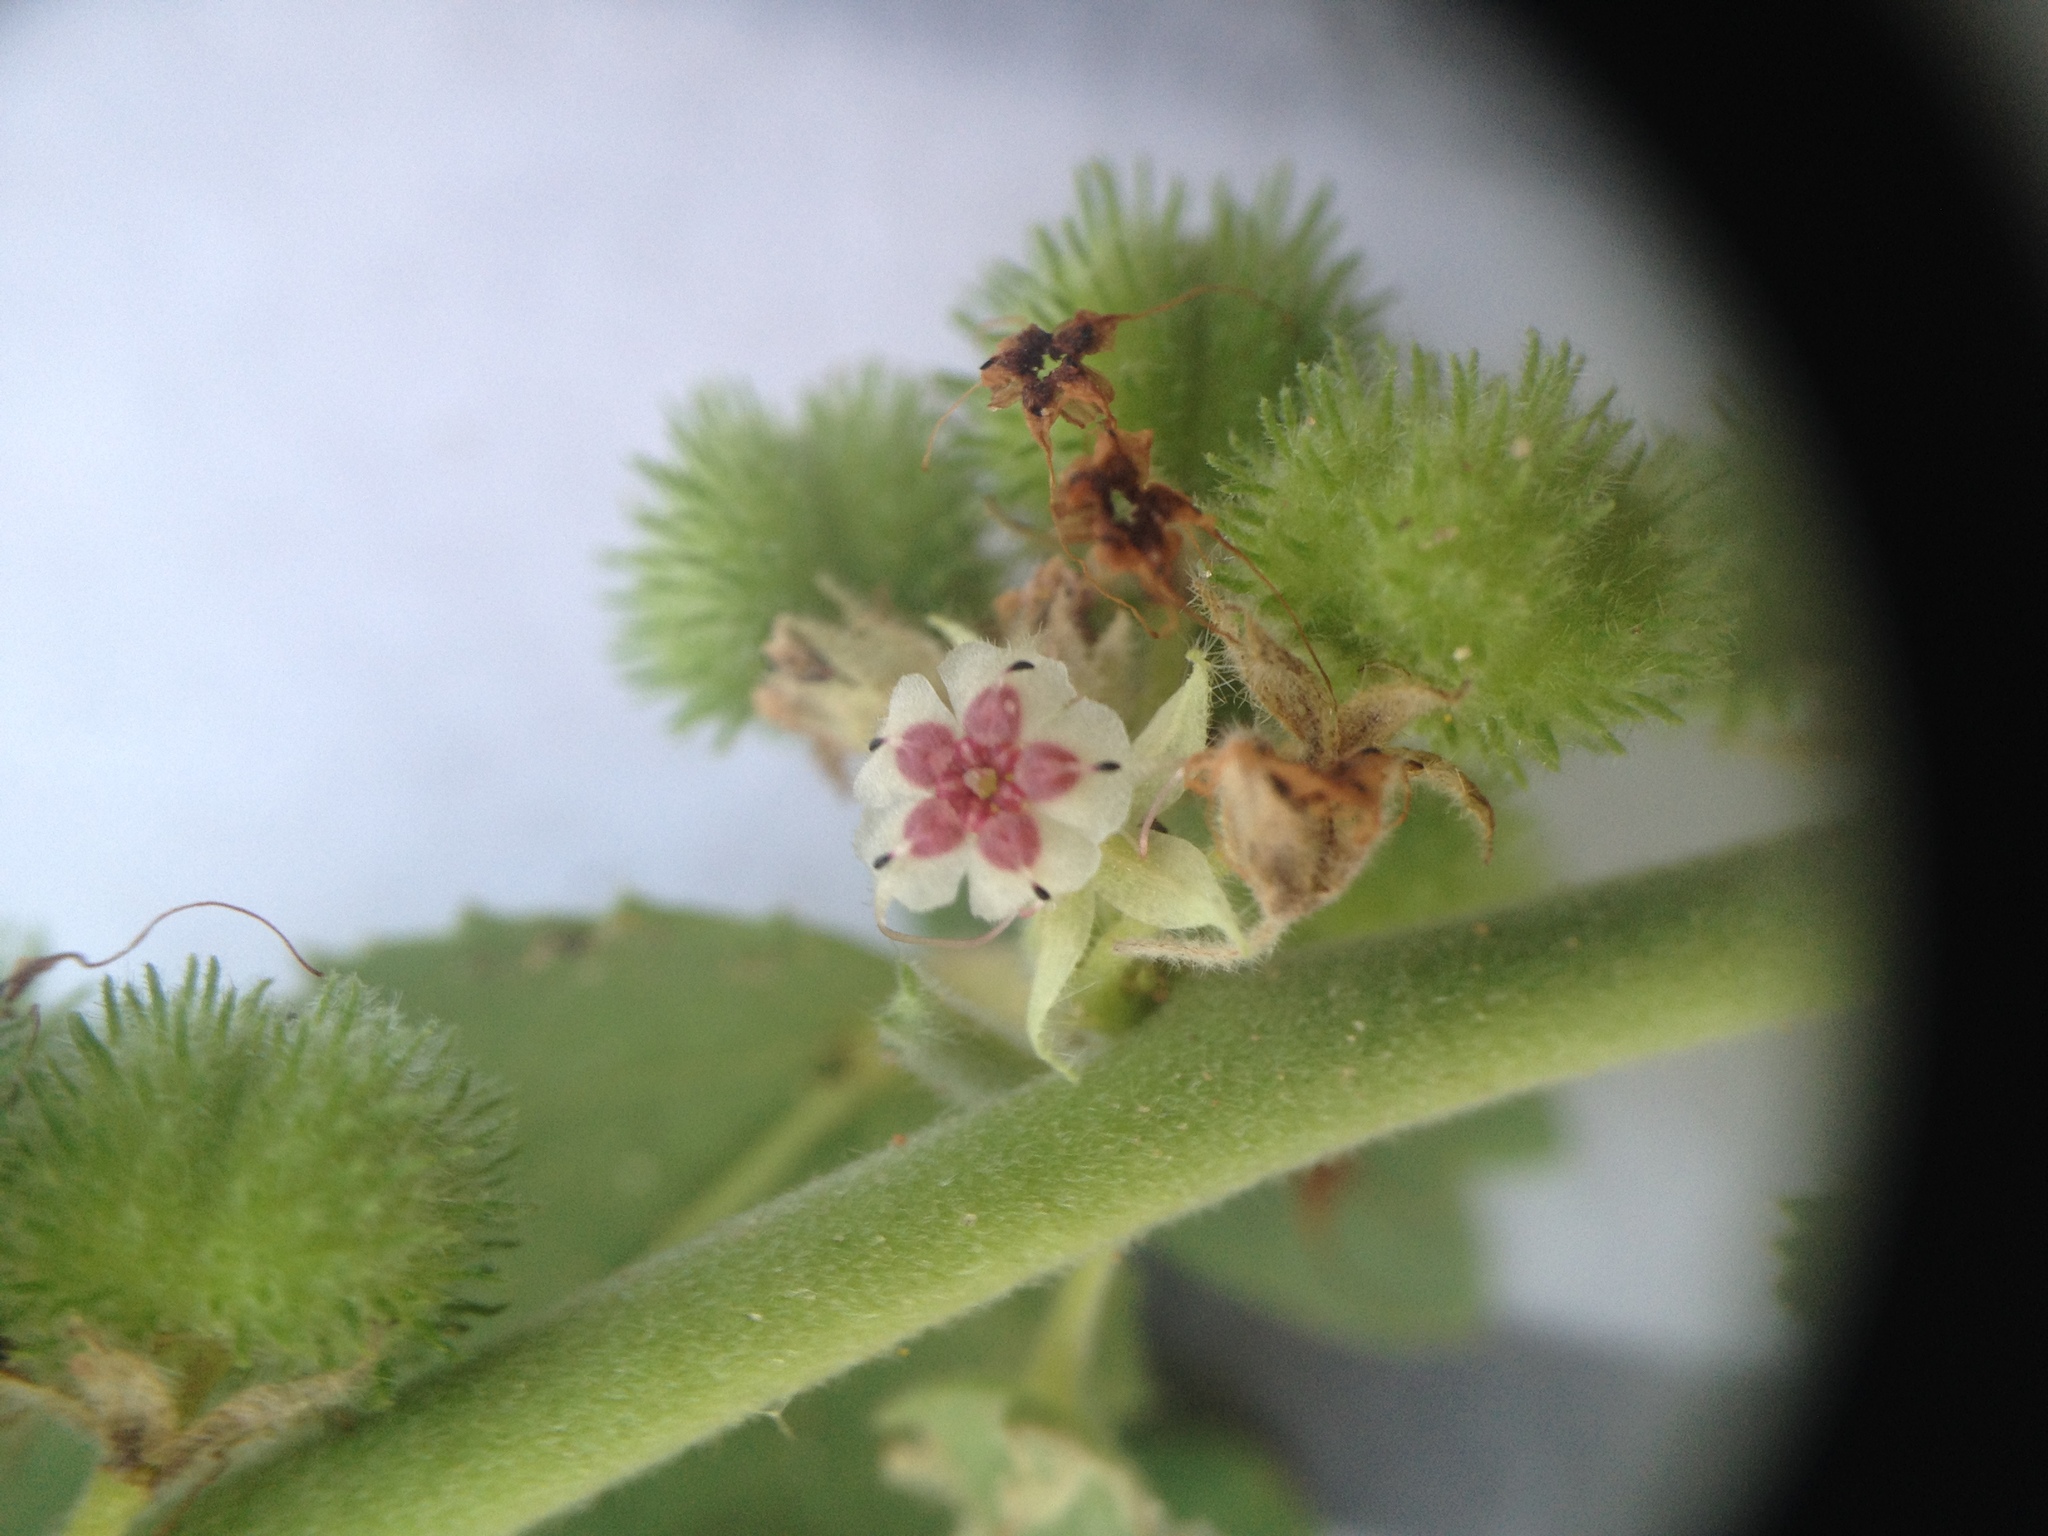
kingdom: Plantae
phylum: Tracheophyta
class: Magnoliopsida
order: Malvales
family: Malvaceae
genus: Ayenia
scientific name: Ayenia tomentosa
